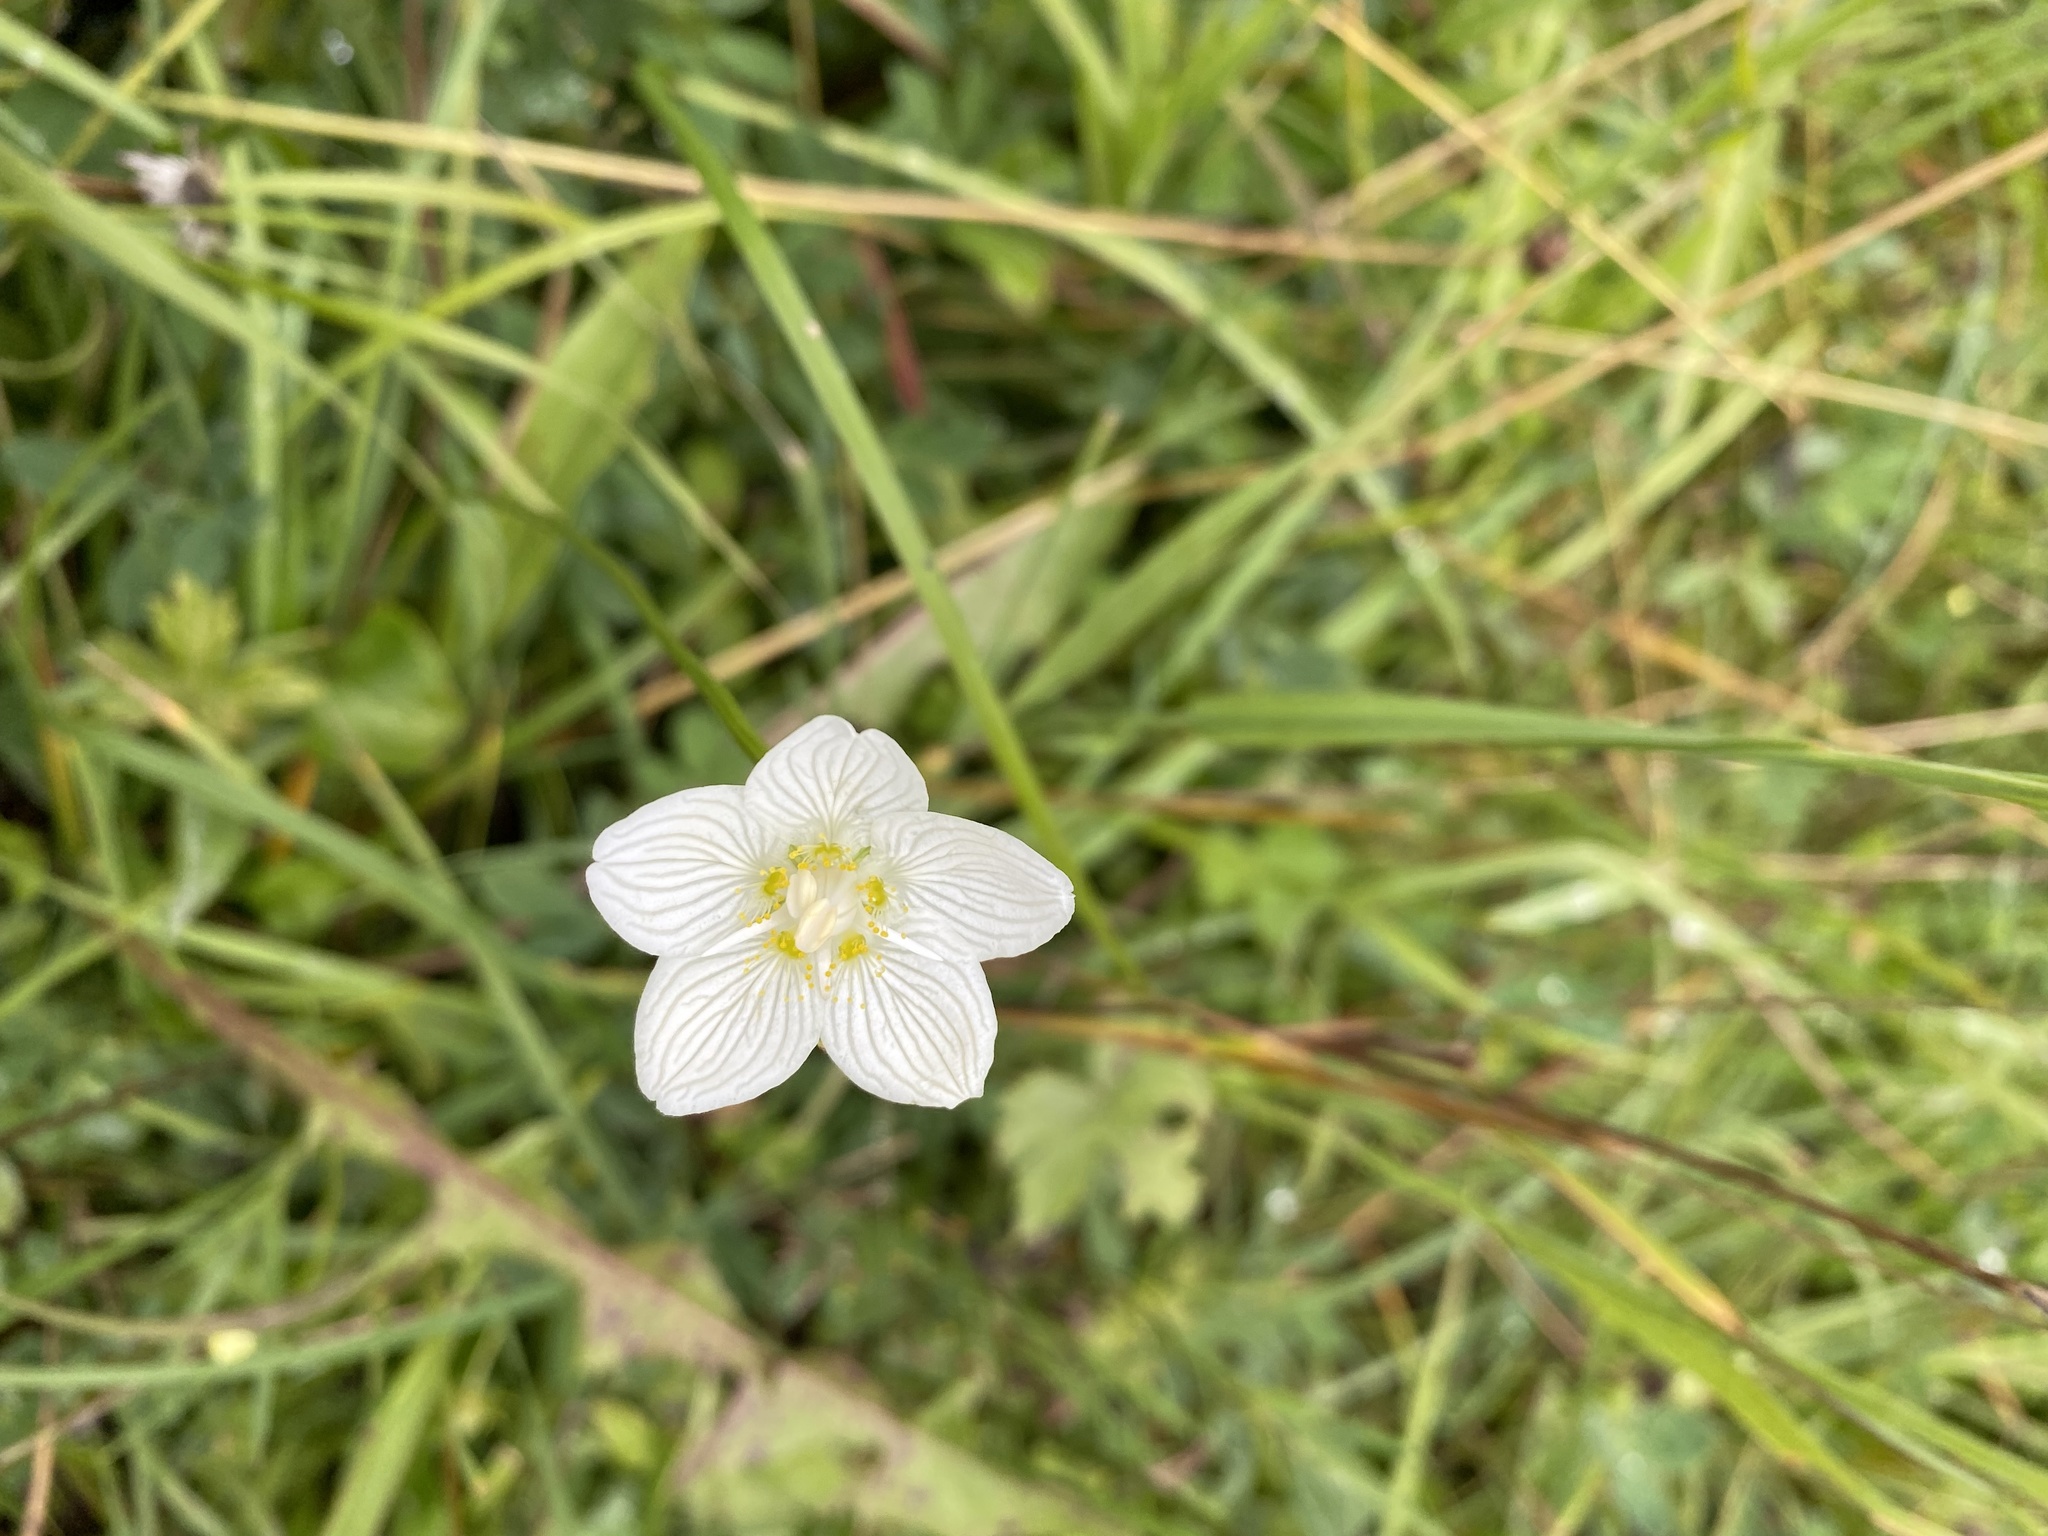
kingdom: Plantae
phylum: Tracheophyta
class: Magnoliopsida
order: Celastrales
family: Parnassiaceae
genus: Parnassia
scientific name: Parnassia palustris
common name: Grass-of-parnassus
